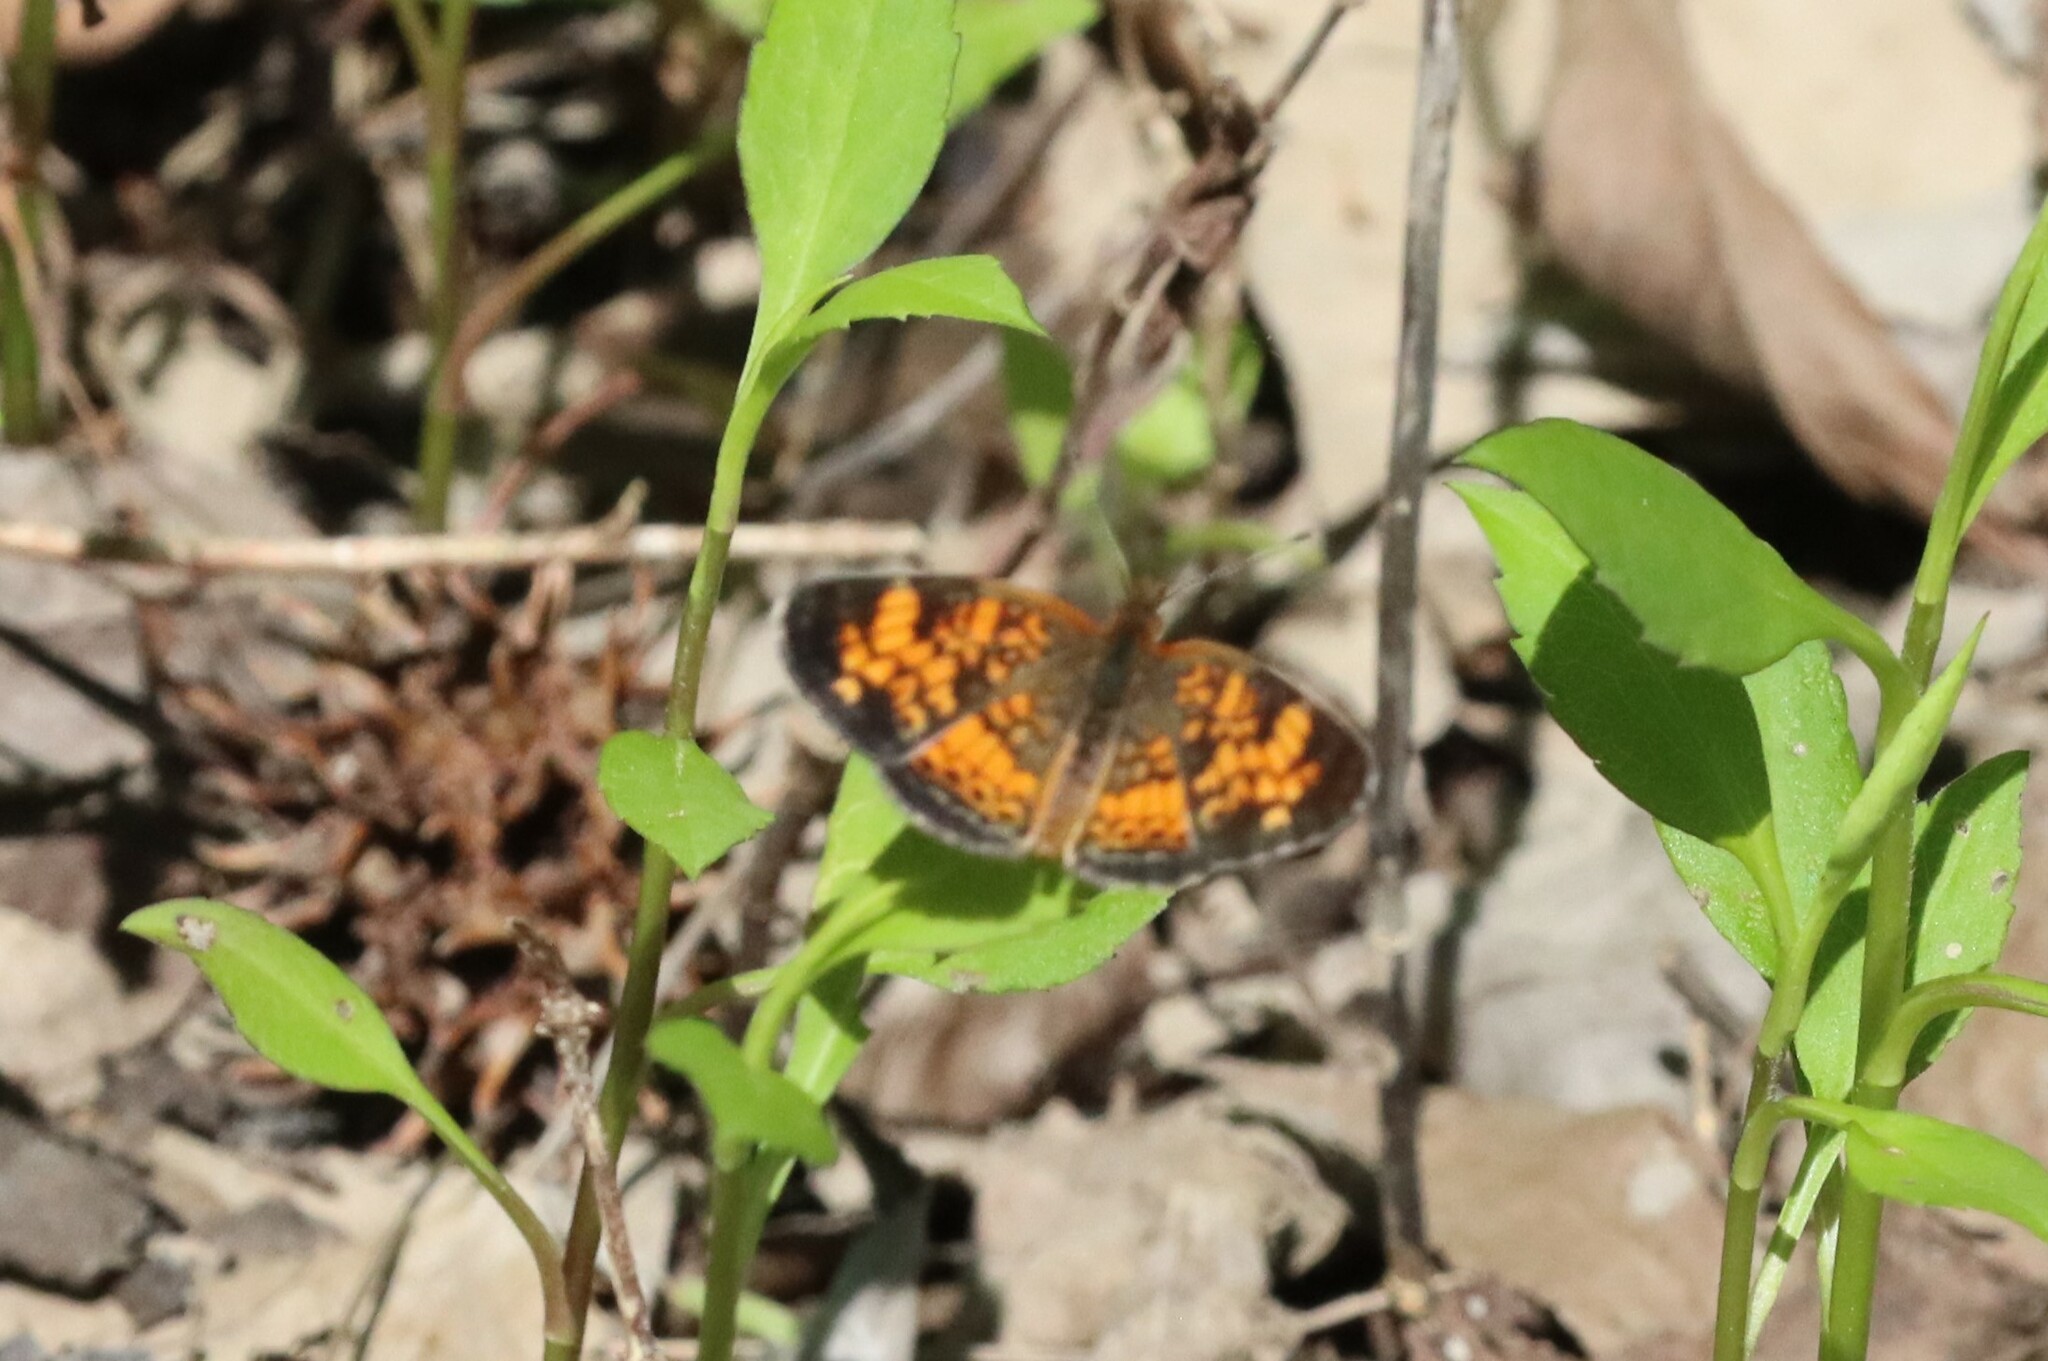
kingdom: Animalia
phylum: Arthropoda
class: Insecta
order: Lepidoptera
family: Nymphalidae
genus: Phyciodes
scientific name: Phyciodes tharos
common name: Pearl crescent
